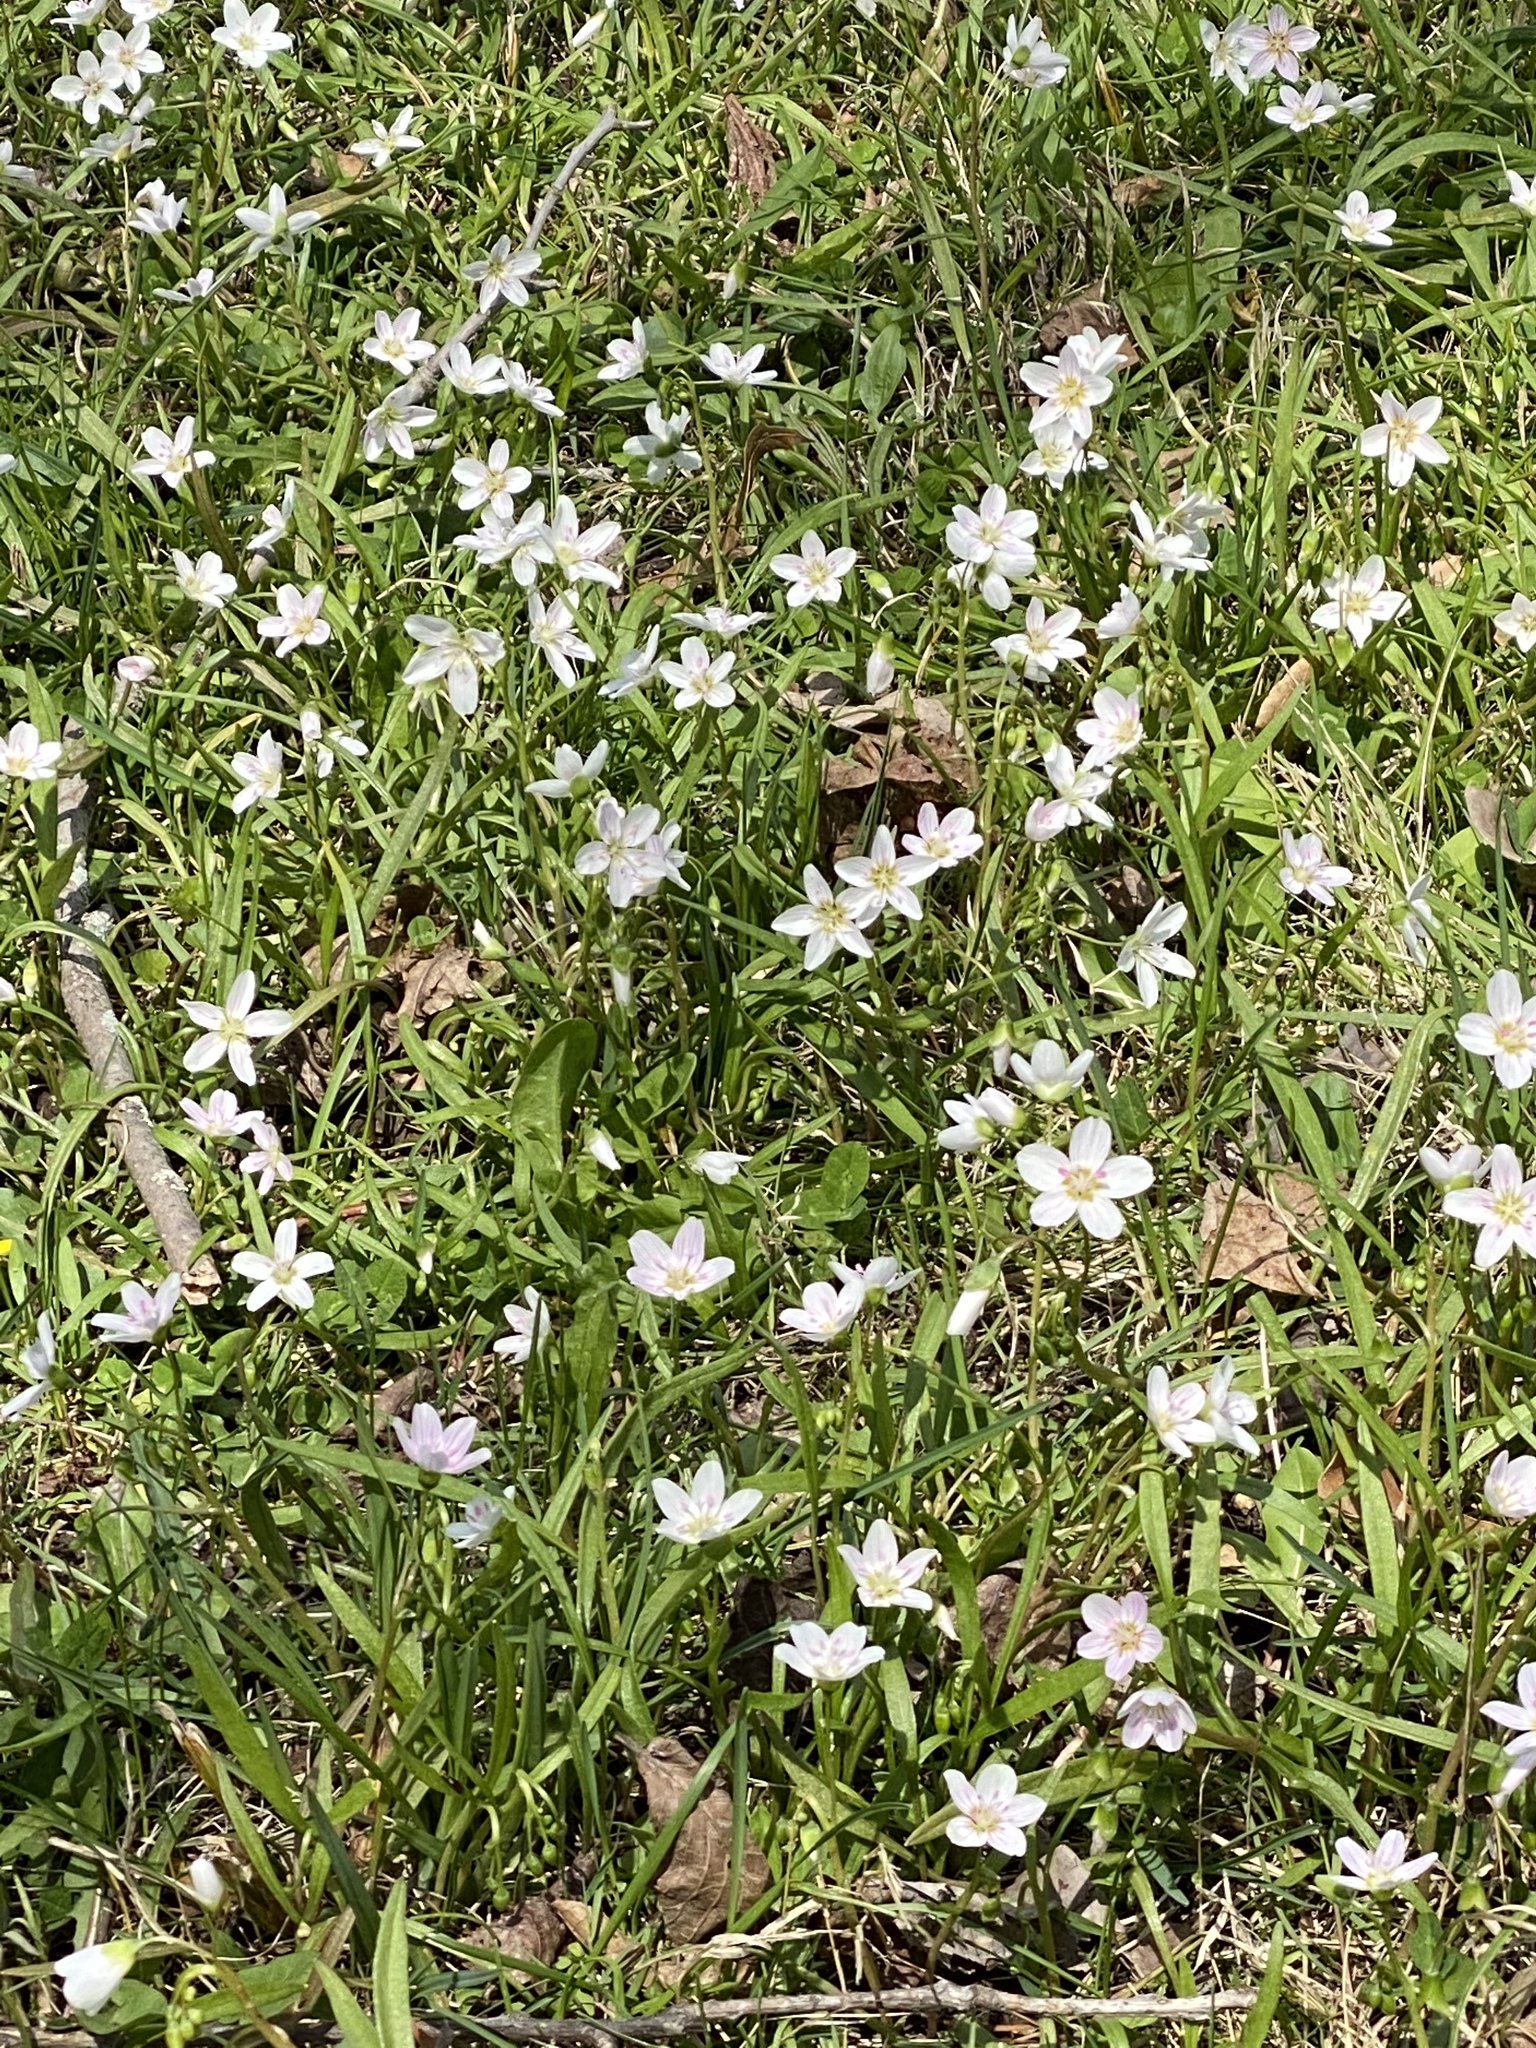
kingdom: Plantae
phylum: Tracheophyta
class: Magnoliopsida
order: Caryophyllales
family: Montiaceae
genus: Claytonia
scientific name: Claytonia virginica
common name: Virginia springbeauty
